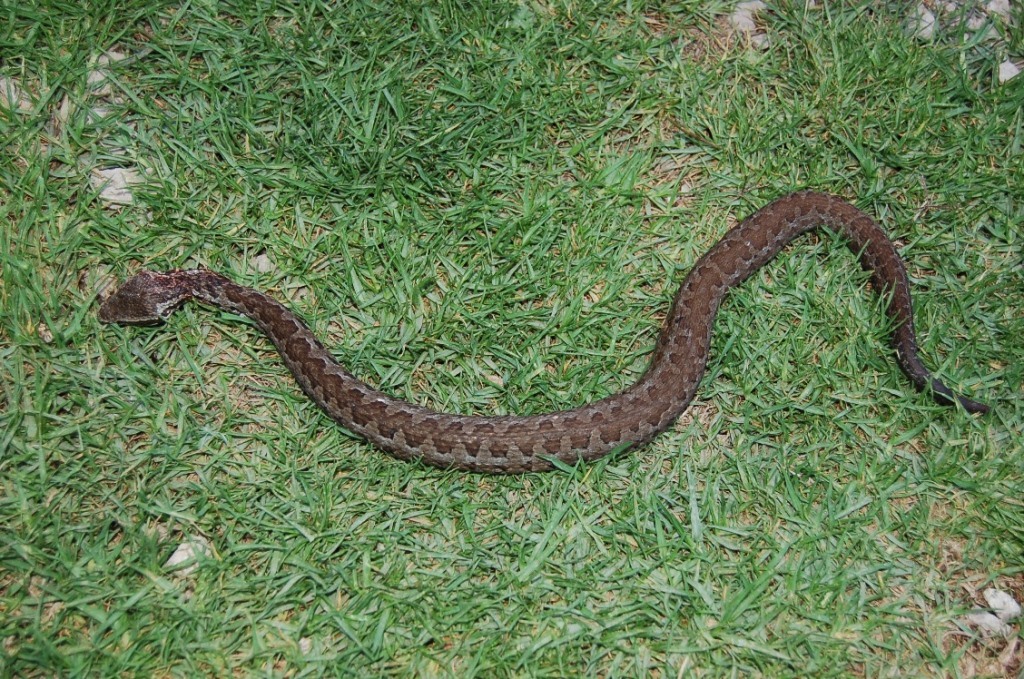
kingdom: Animalia
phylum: Chordata
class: Squamata
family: Viperidae
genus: Cerrophidion
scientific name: Cerrophidion tzotzilorum
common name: Tzotzil montane pit viper
